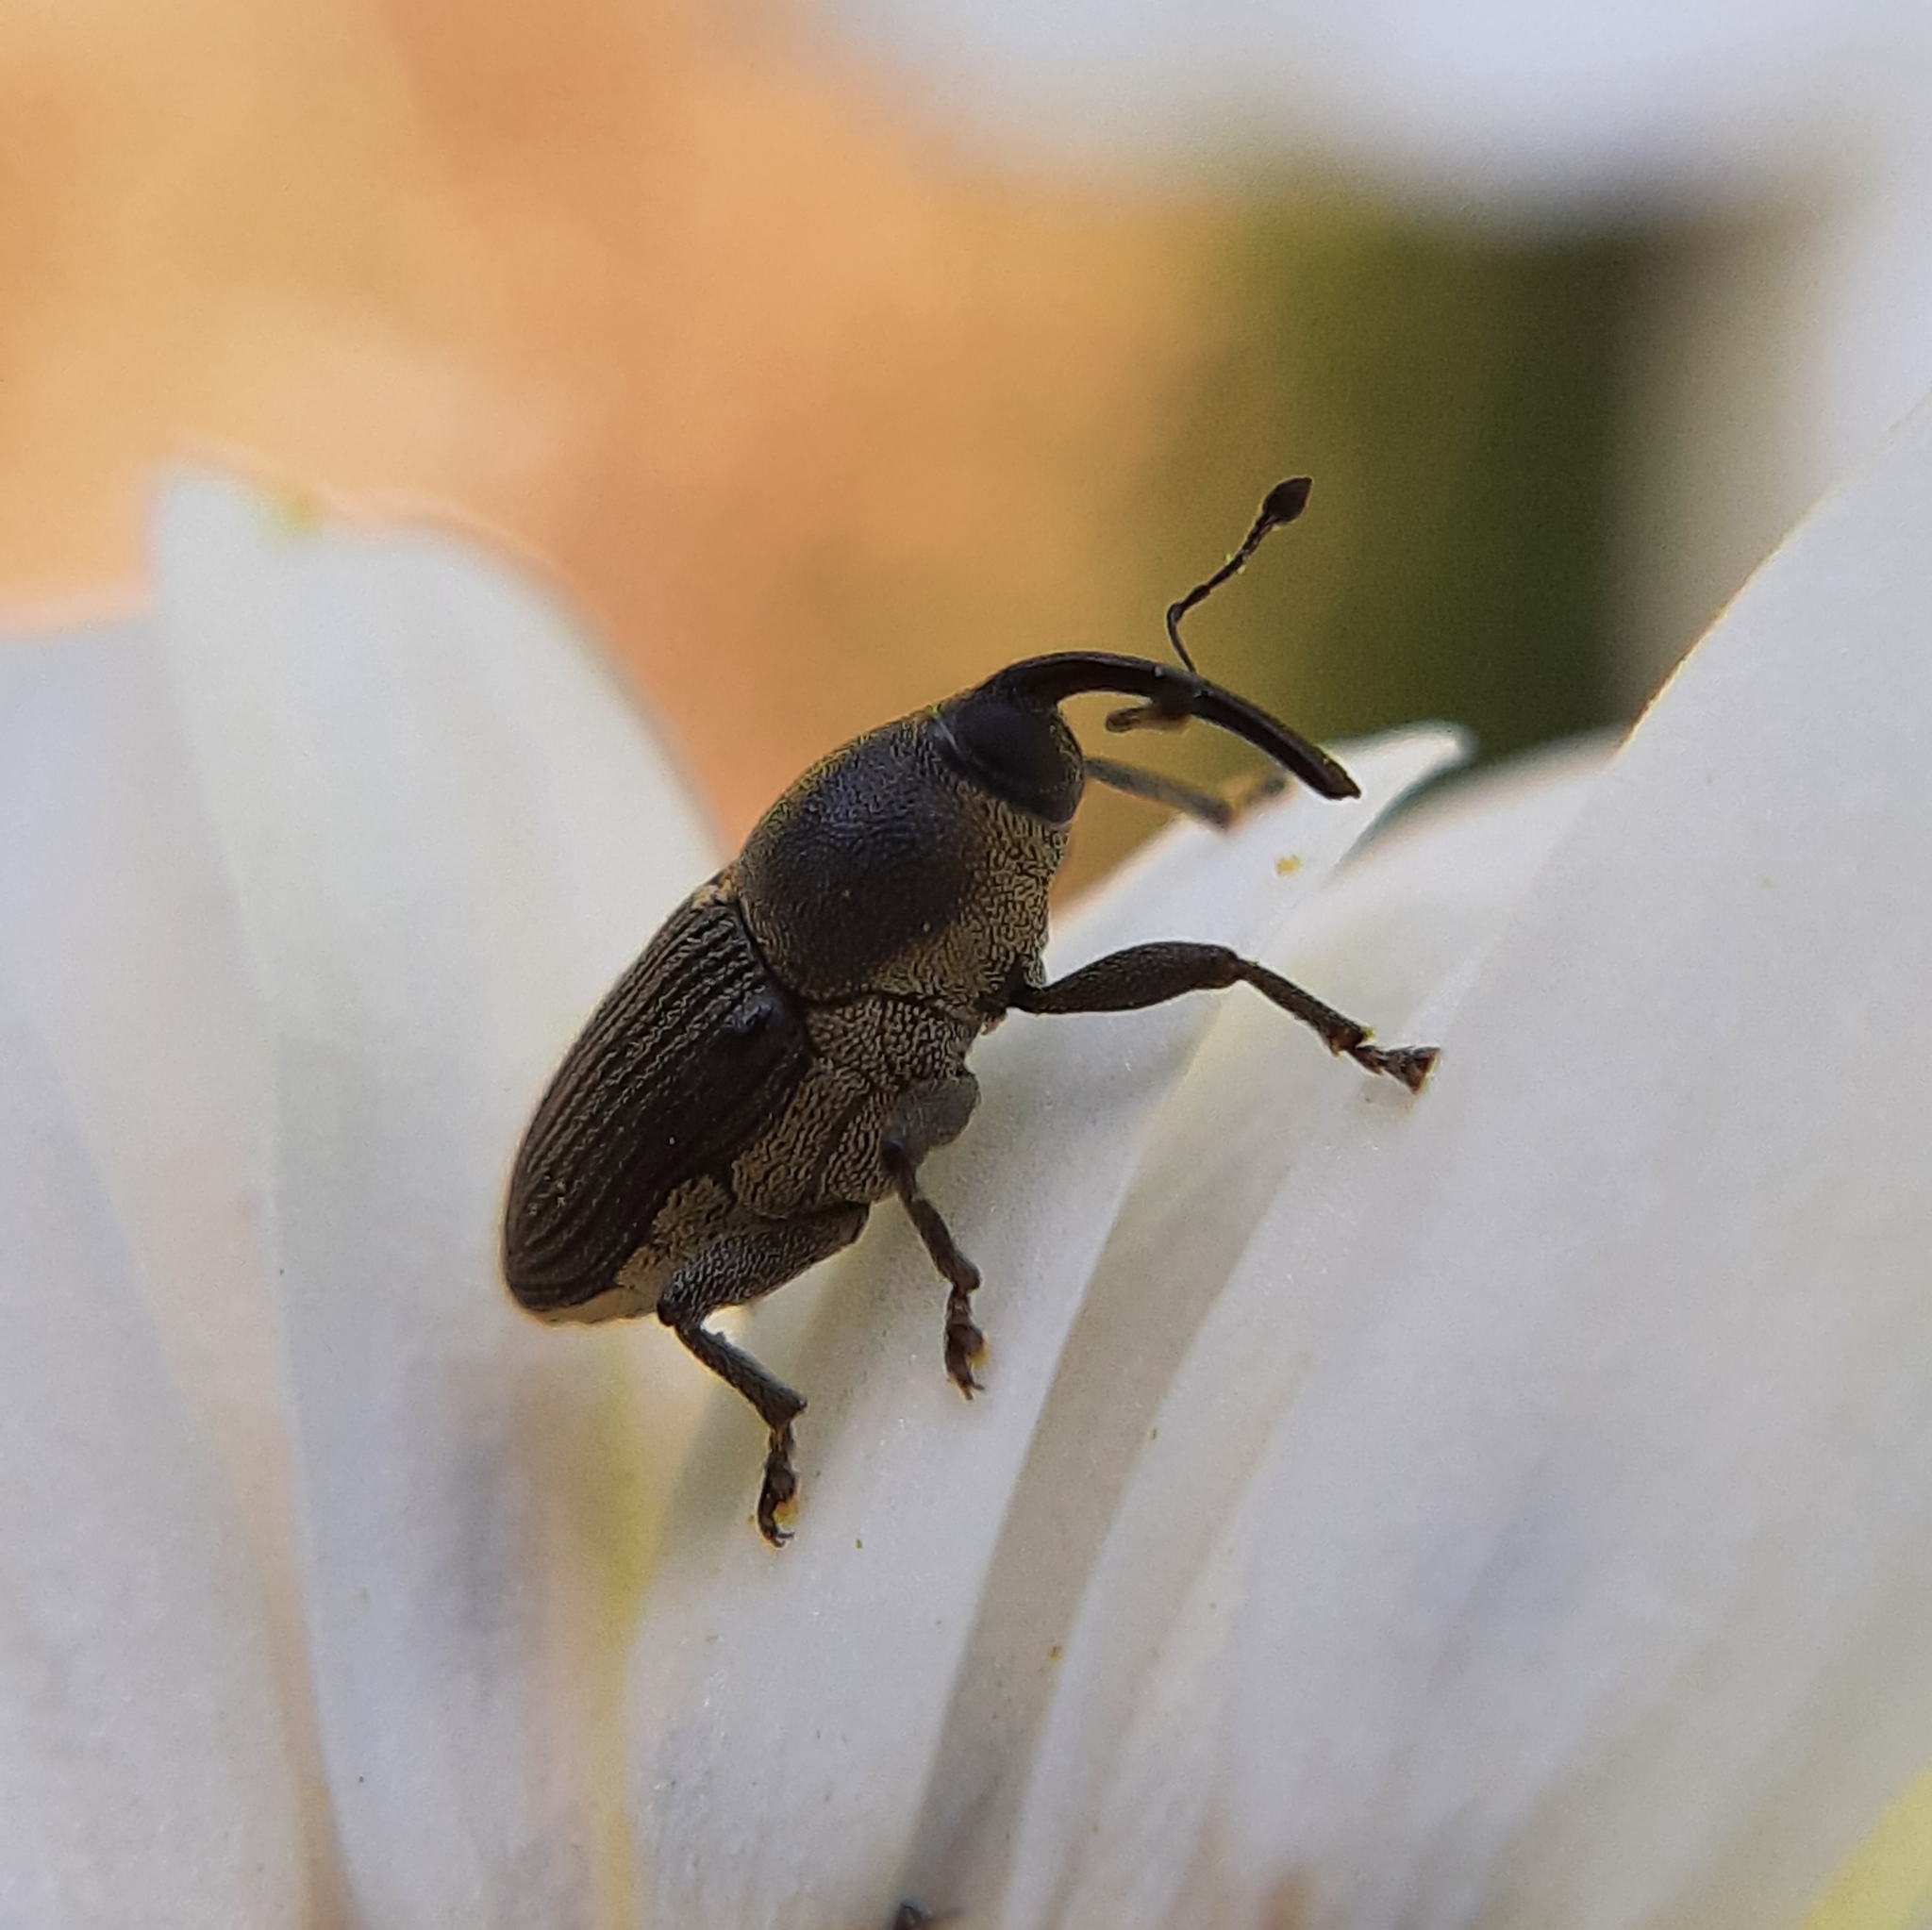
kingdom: Animalia
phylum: Arthropoda
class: Insecta
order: Coleoptera
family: Curculionidae
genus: Odontocorynus
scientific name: Odontocorynus salebrosus
